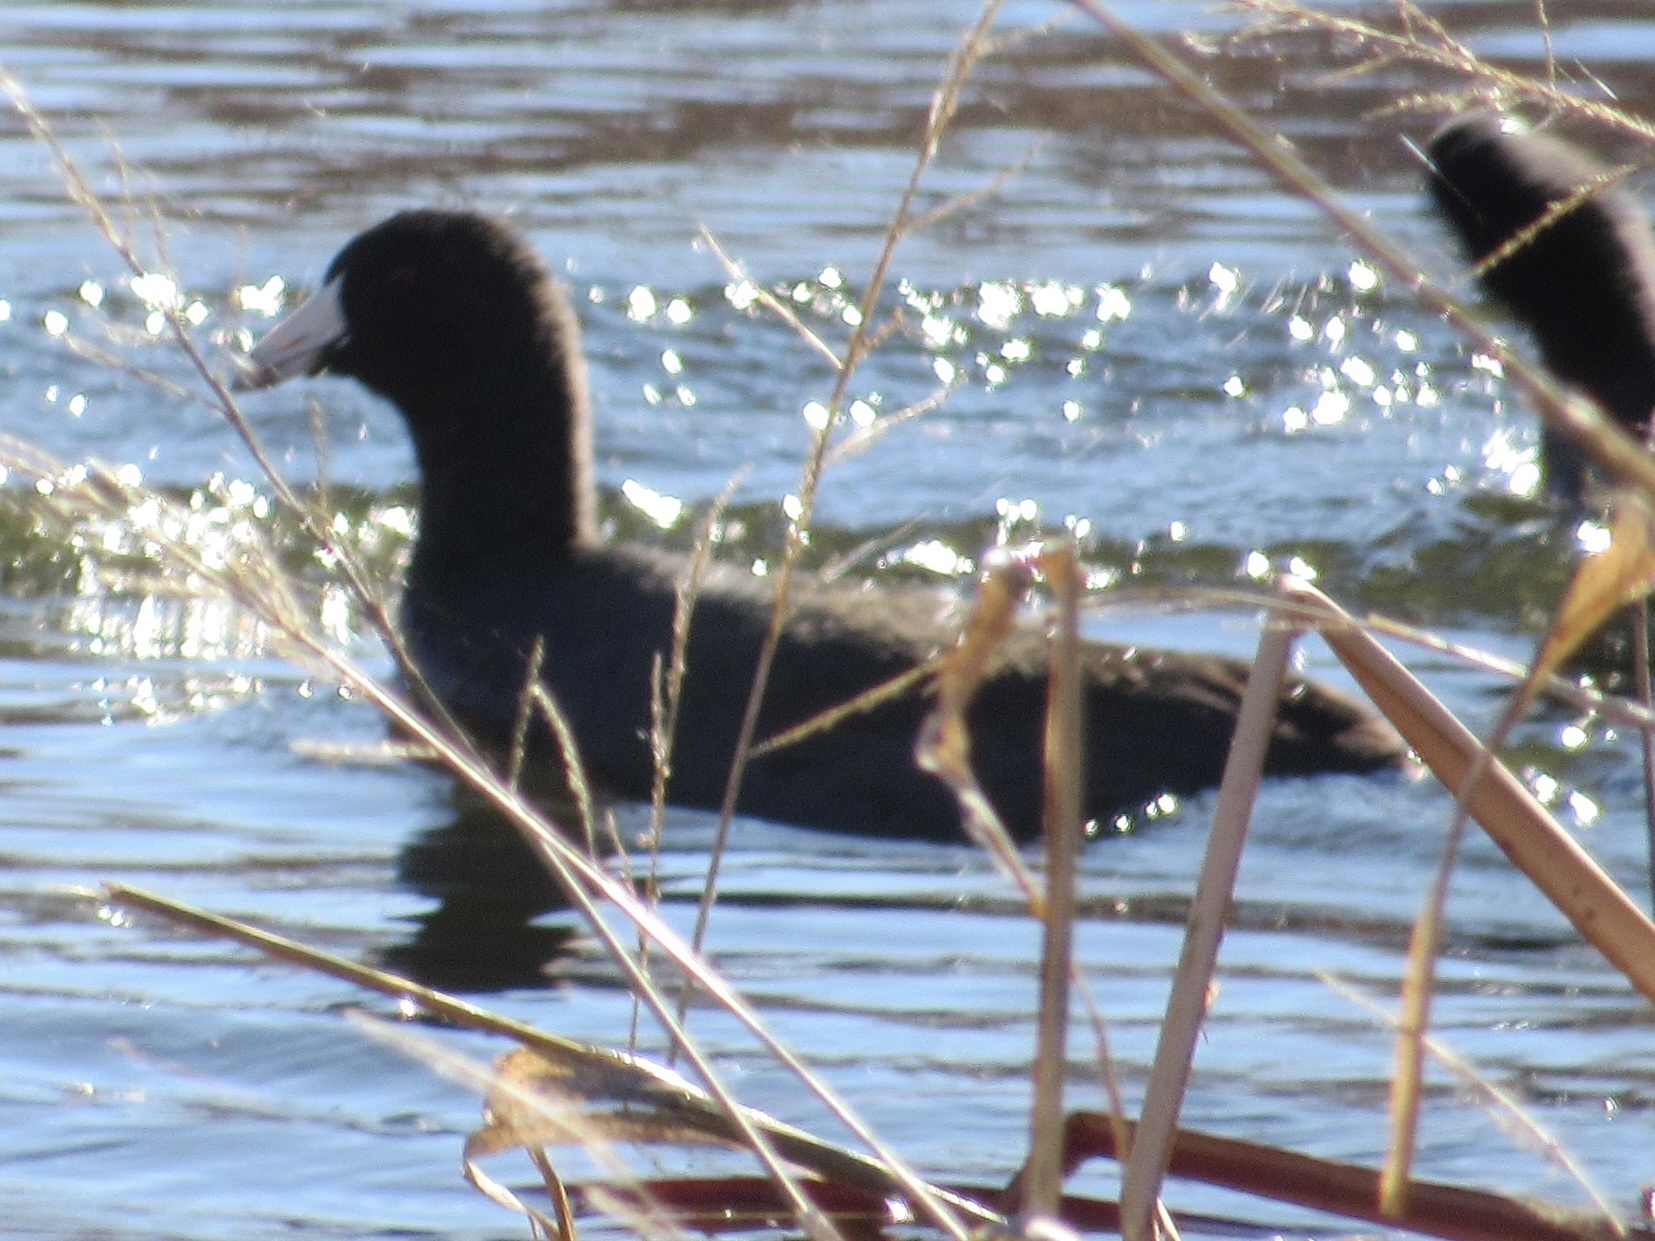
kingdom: Animalia
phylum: Chordata
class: Aves
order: Gruiformes
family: Rallidae
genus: Fulica
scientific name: Fulica americana
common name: American coot
